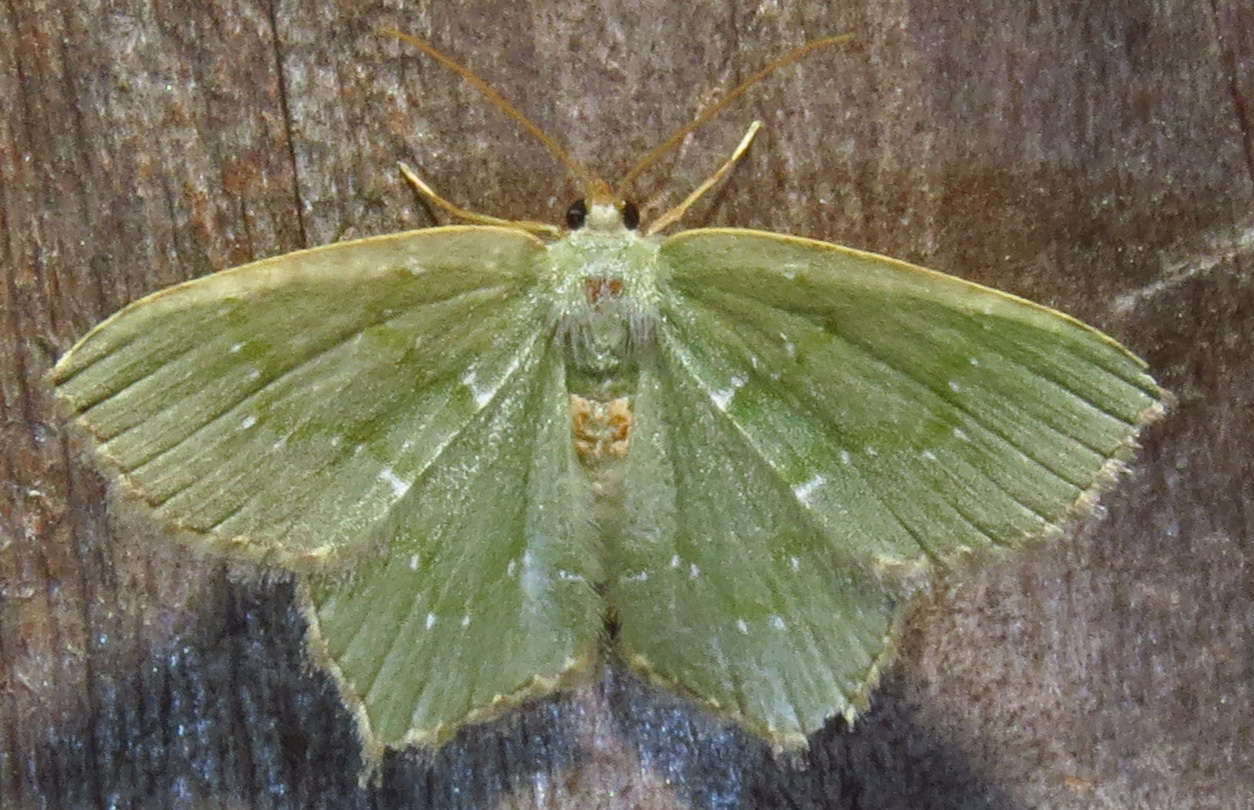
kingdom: Animalia
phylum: Arthropoda
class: Insecta
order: Lepidoptera
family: Geometridae
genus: Chloropteryx
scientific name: Chloropteryx tepperaria
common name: Angle winged emerald moth
